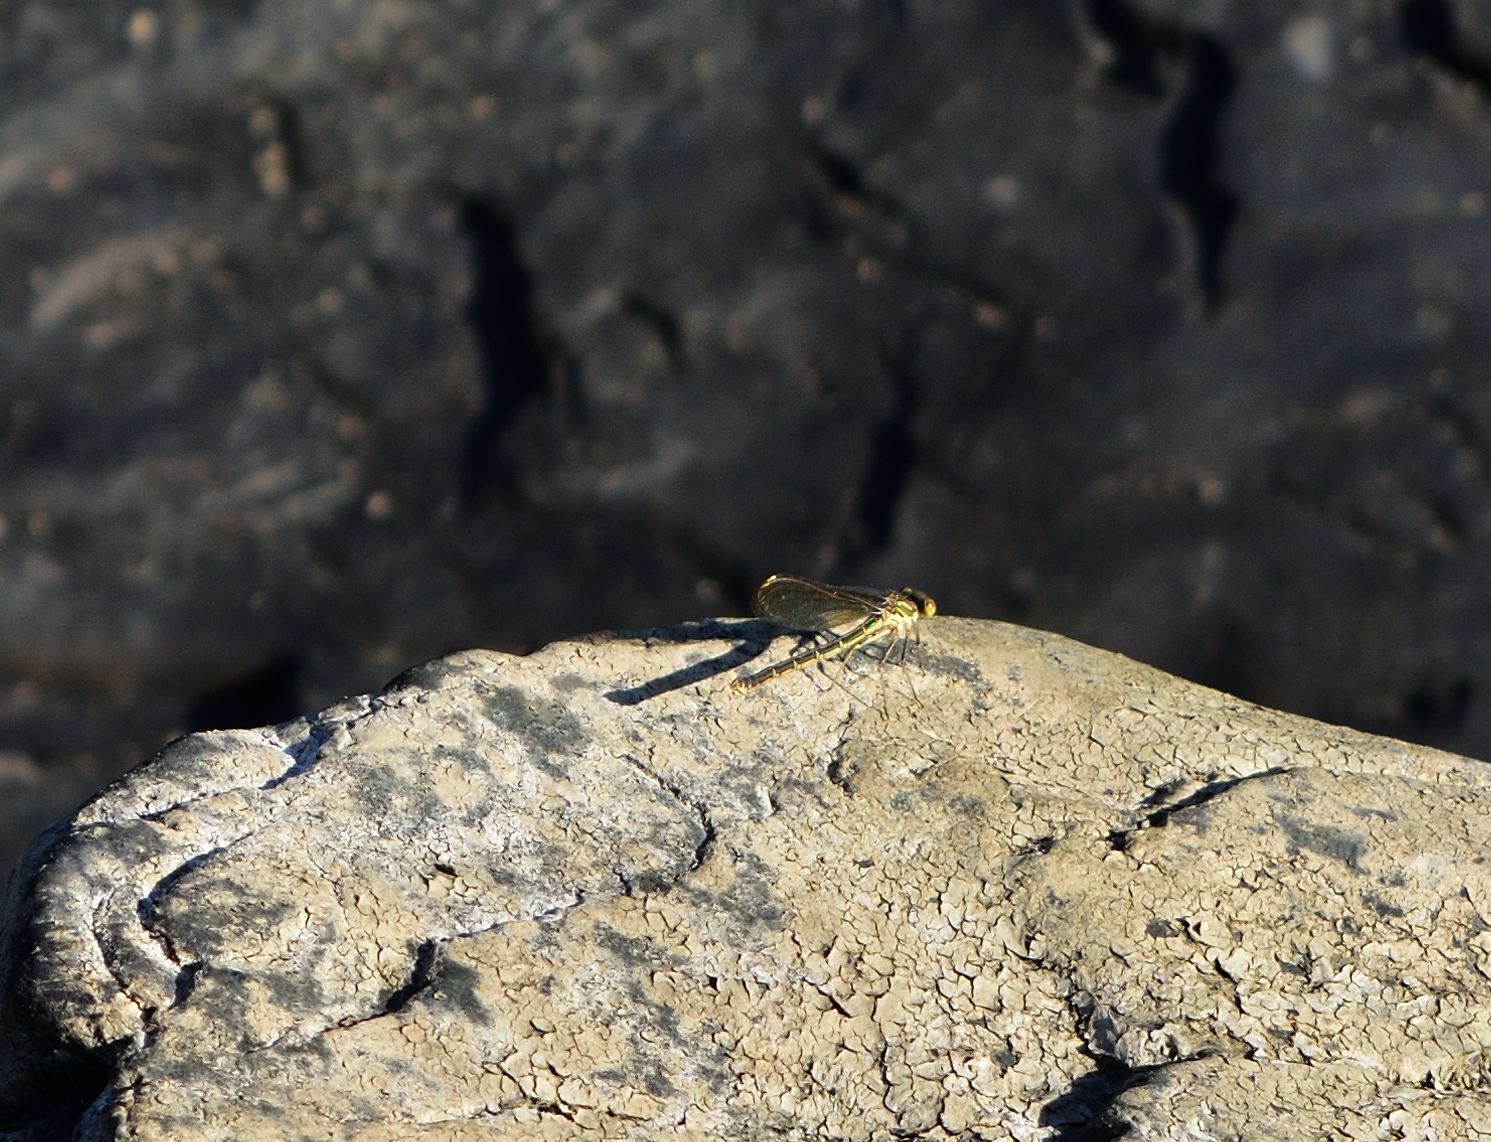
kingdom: Animalia
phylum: Arthropoda
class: Insecta
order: Odonata
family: Calopterygidae
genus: Hetaerina
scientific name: Hetaerina americana
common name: American rubyspot
